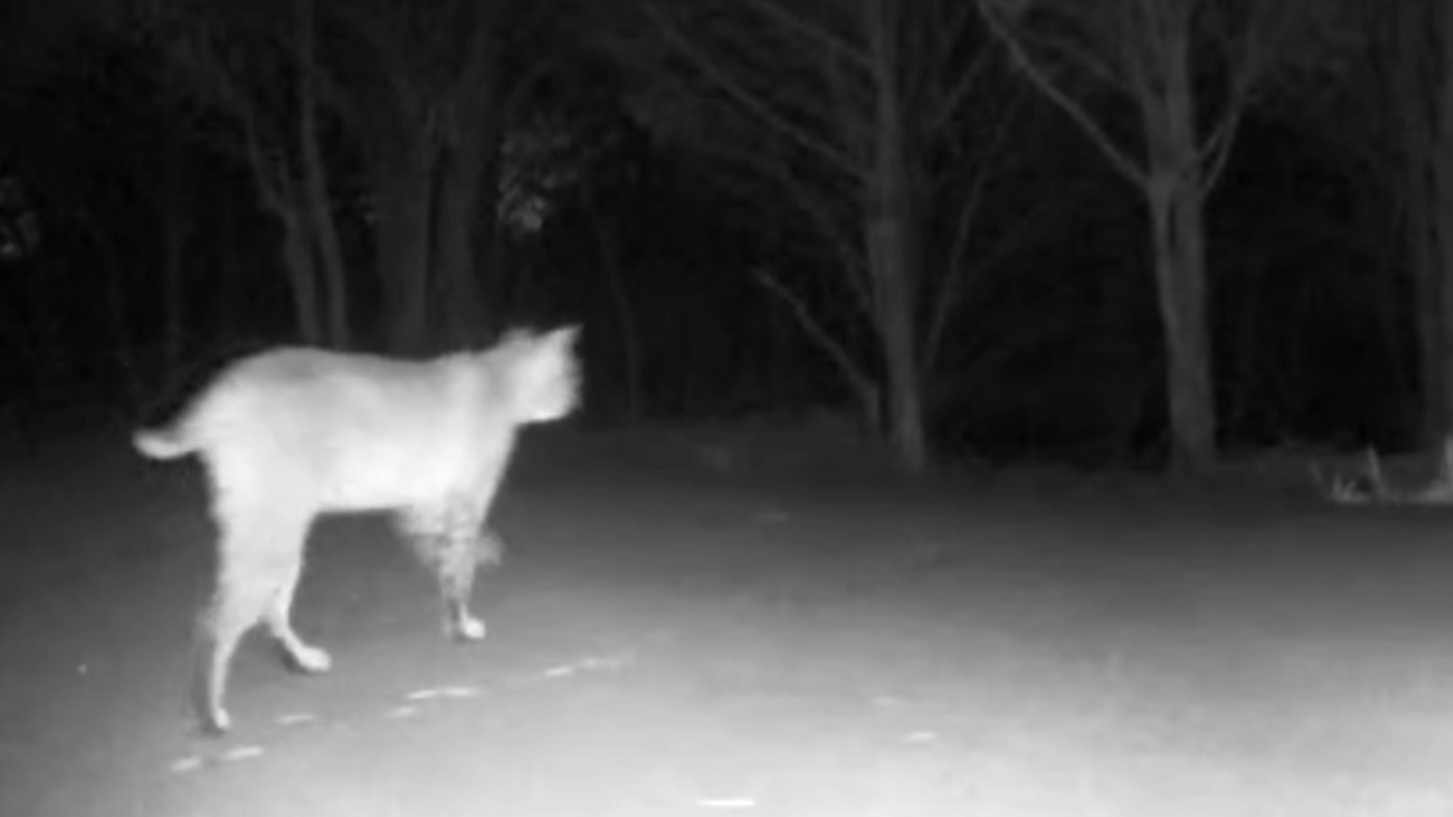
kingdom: Animalia
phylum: Chordata
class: Mammalia
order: Carnivora
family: Felidae
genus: Lynx
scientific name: Lynx rufus
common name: Bobcat
